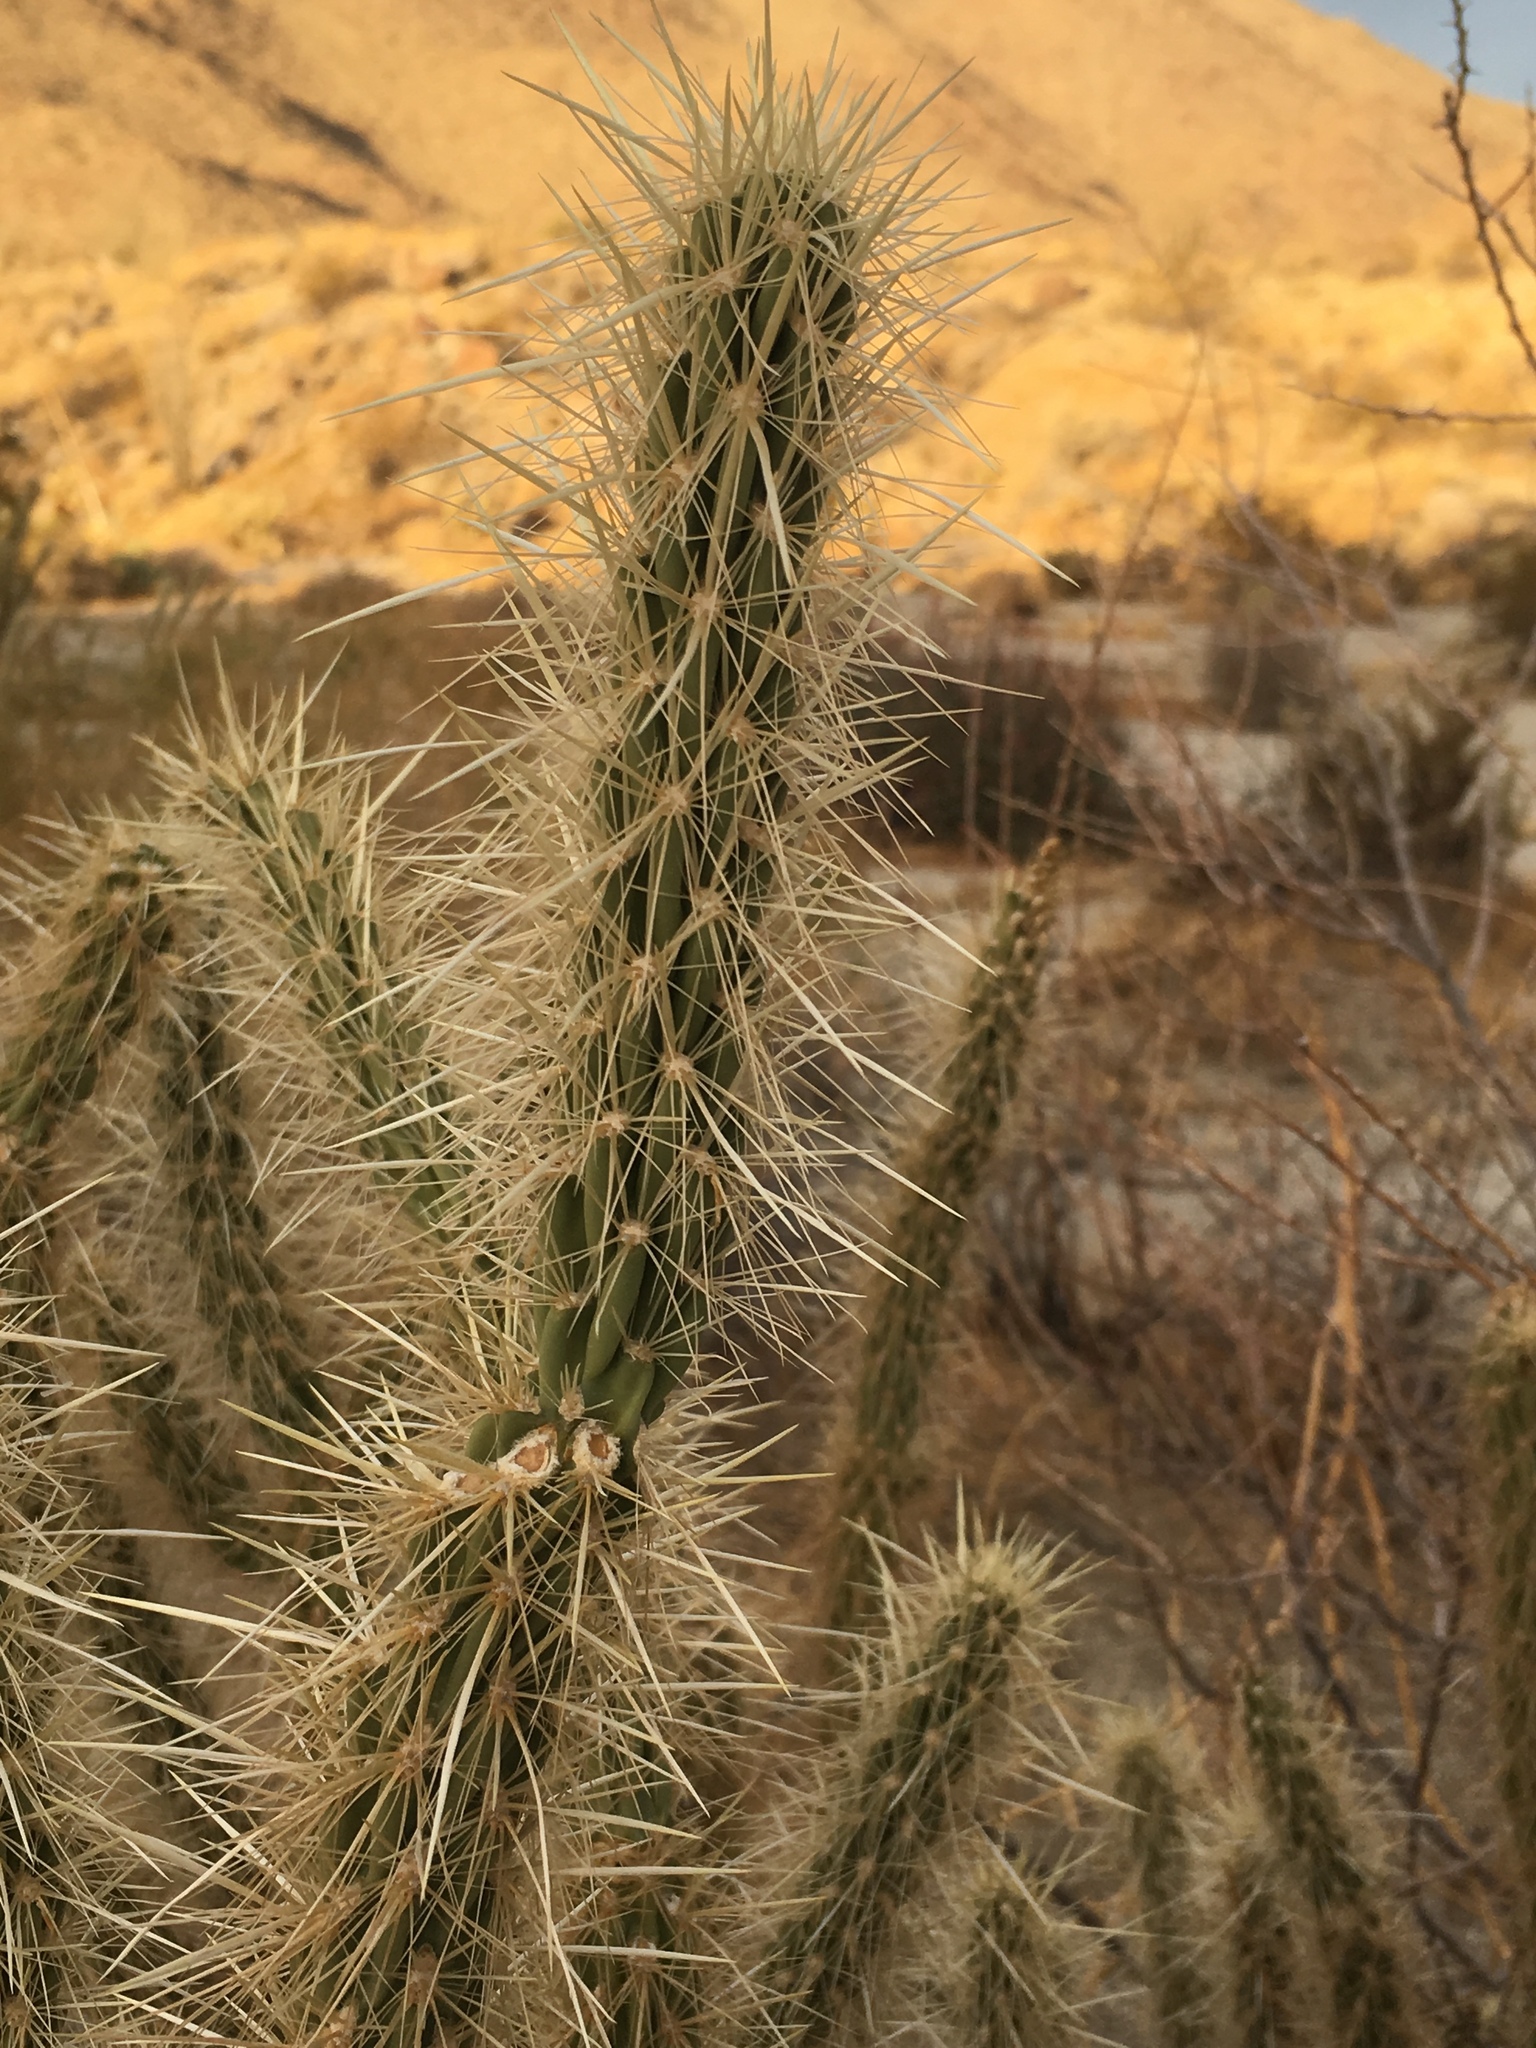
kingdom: Plantae
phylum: Tracheophyta
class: Magnoliopsida
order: Caryophyllales
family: Cactaceae
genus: Cylindropuntia
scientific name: Cylindropuntia ganderi
